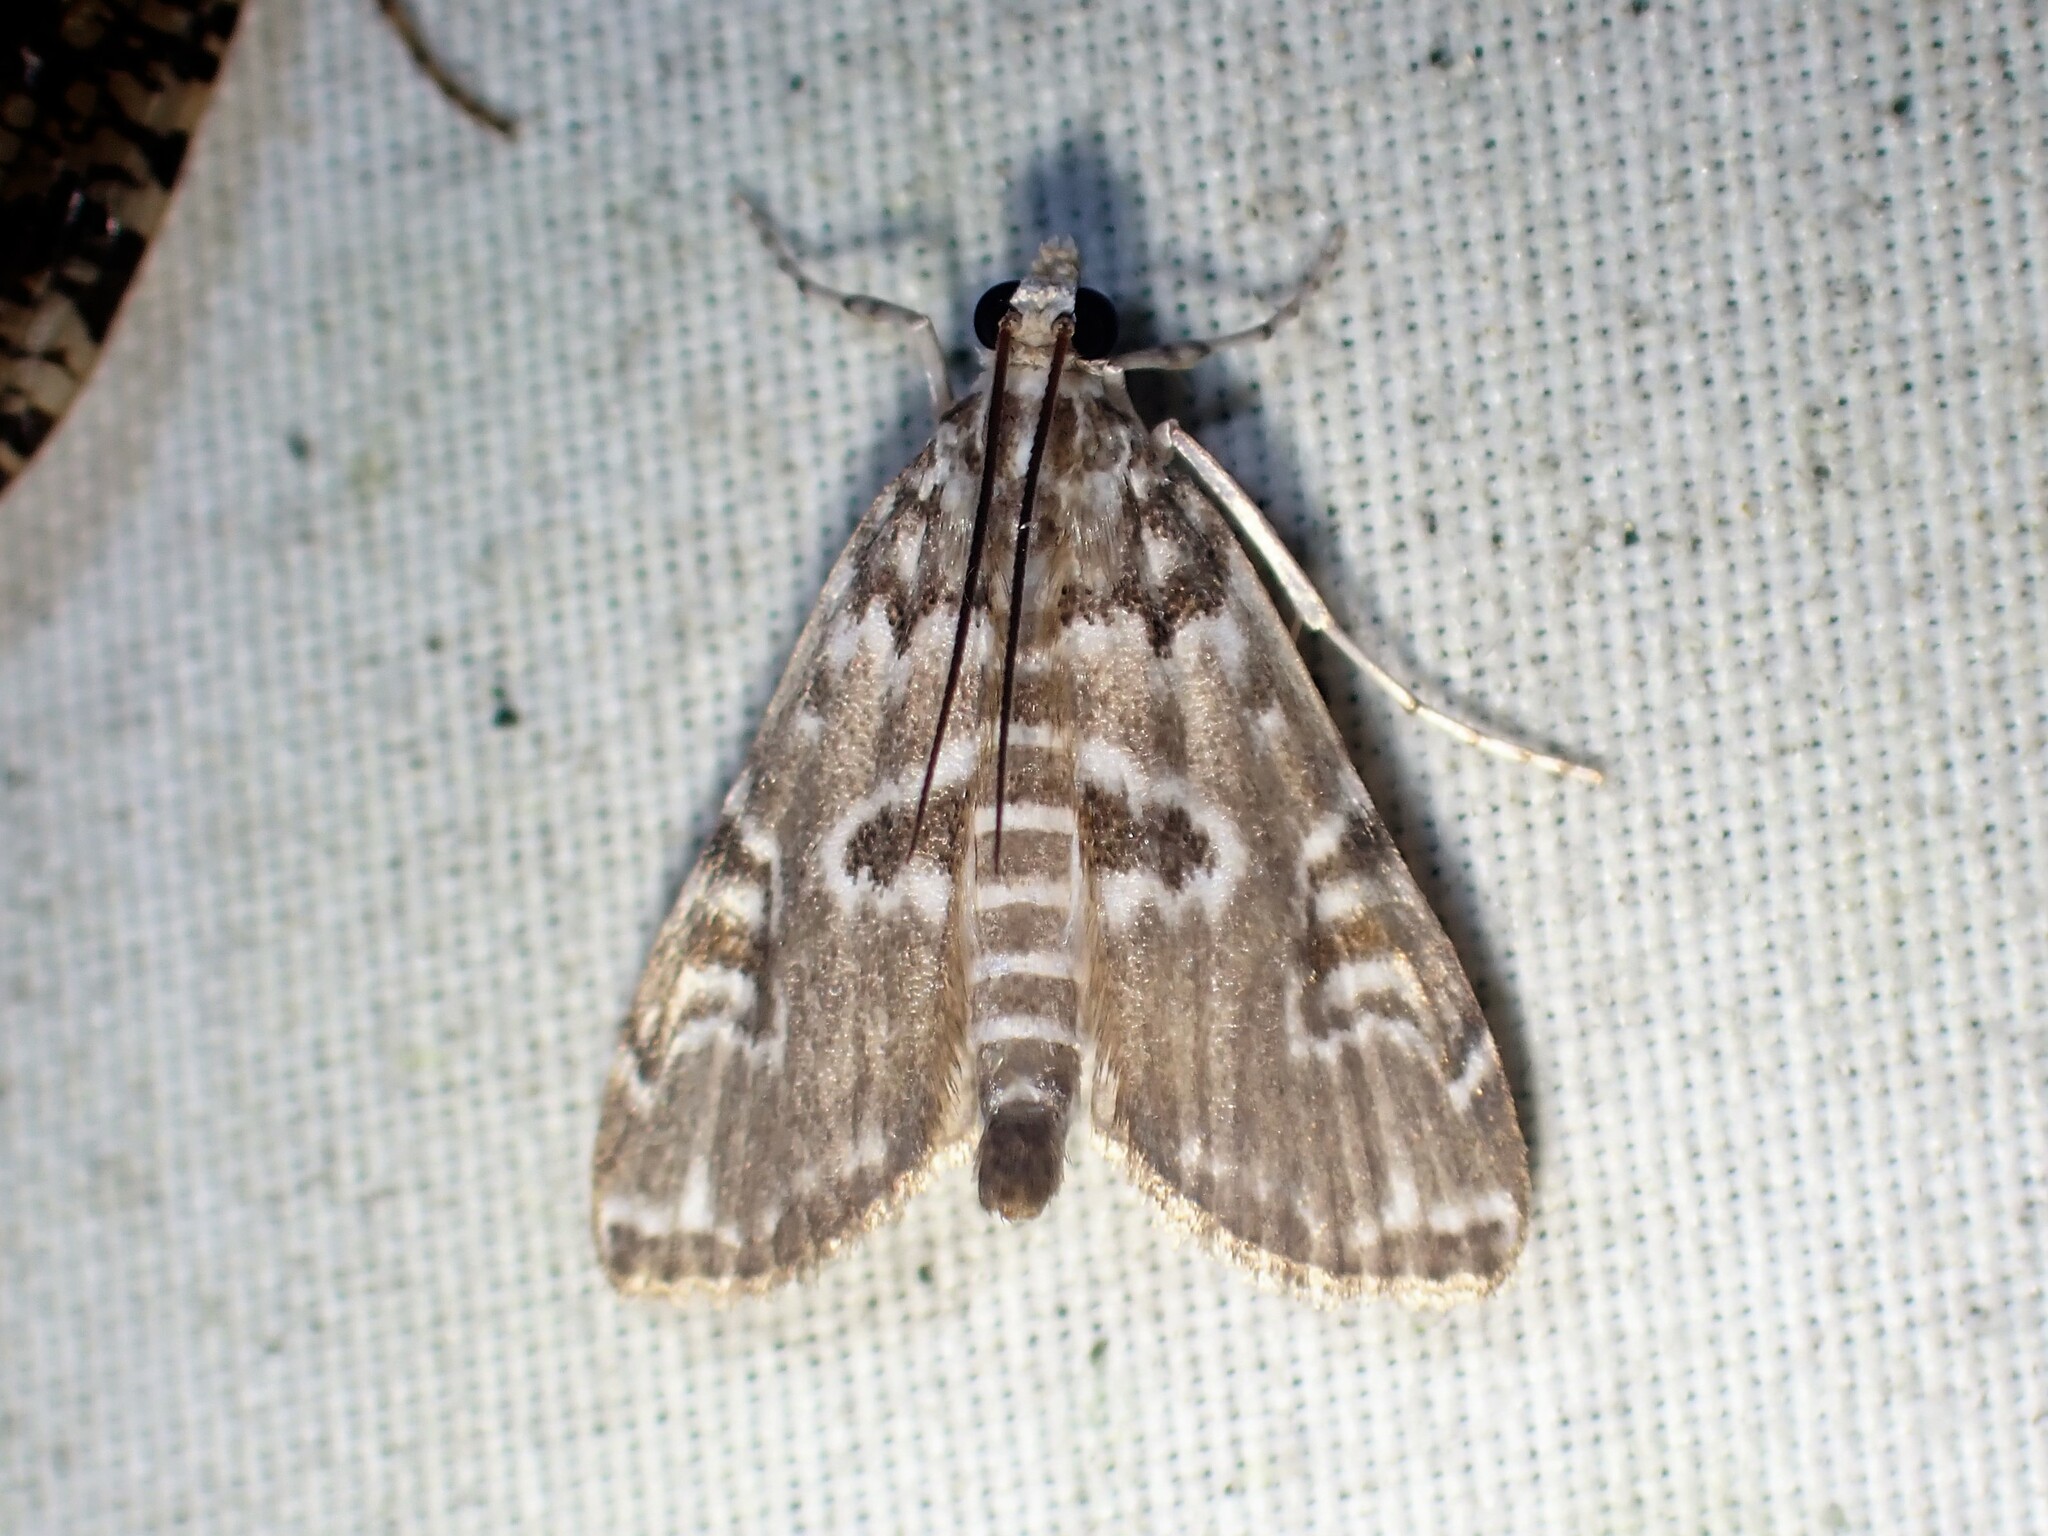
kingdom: Animalia
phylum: Arthropoda
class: Insecta
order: Lepidoptera
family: Crambidae
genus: Elophila
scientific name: Elophila gyralis
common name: Waterlily borer moth
